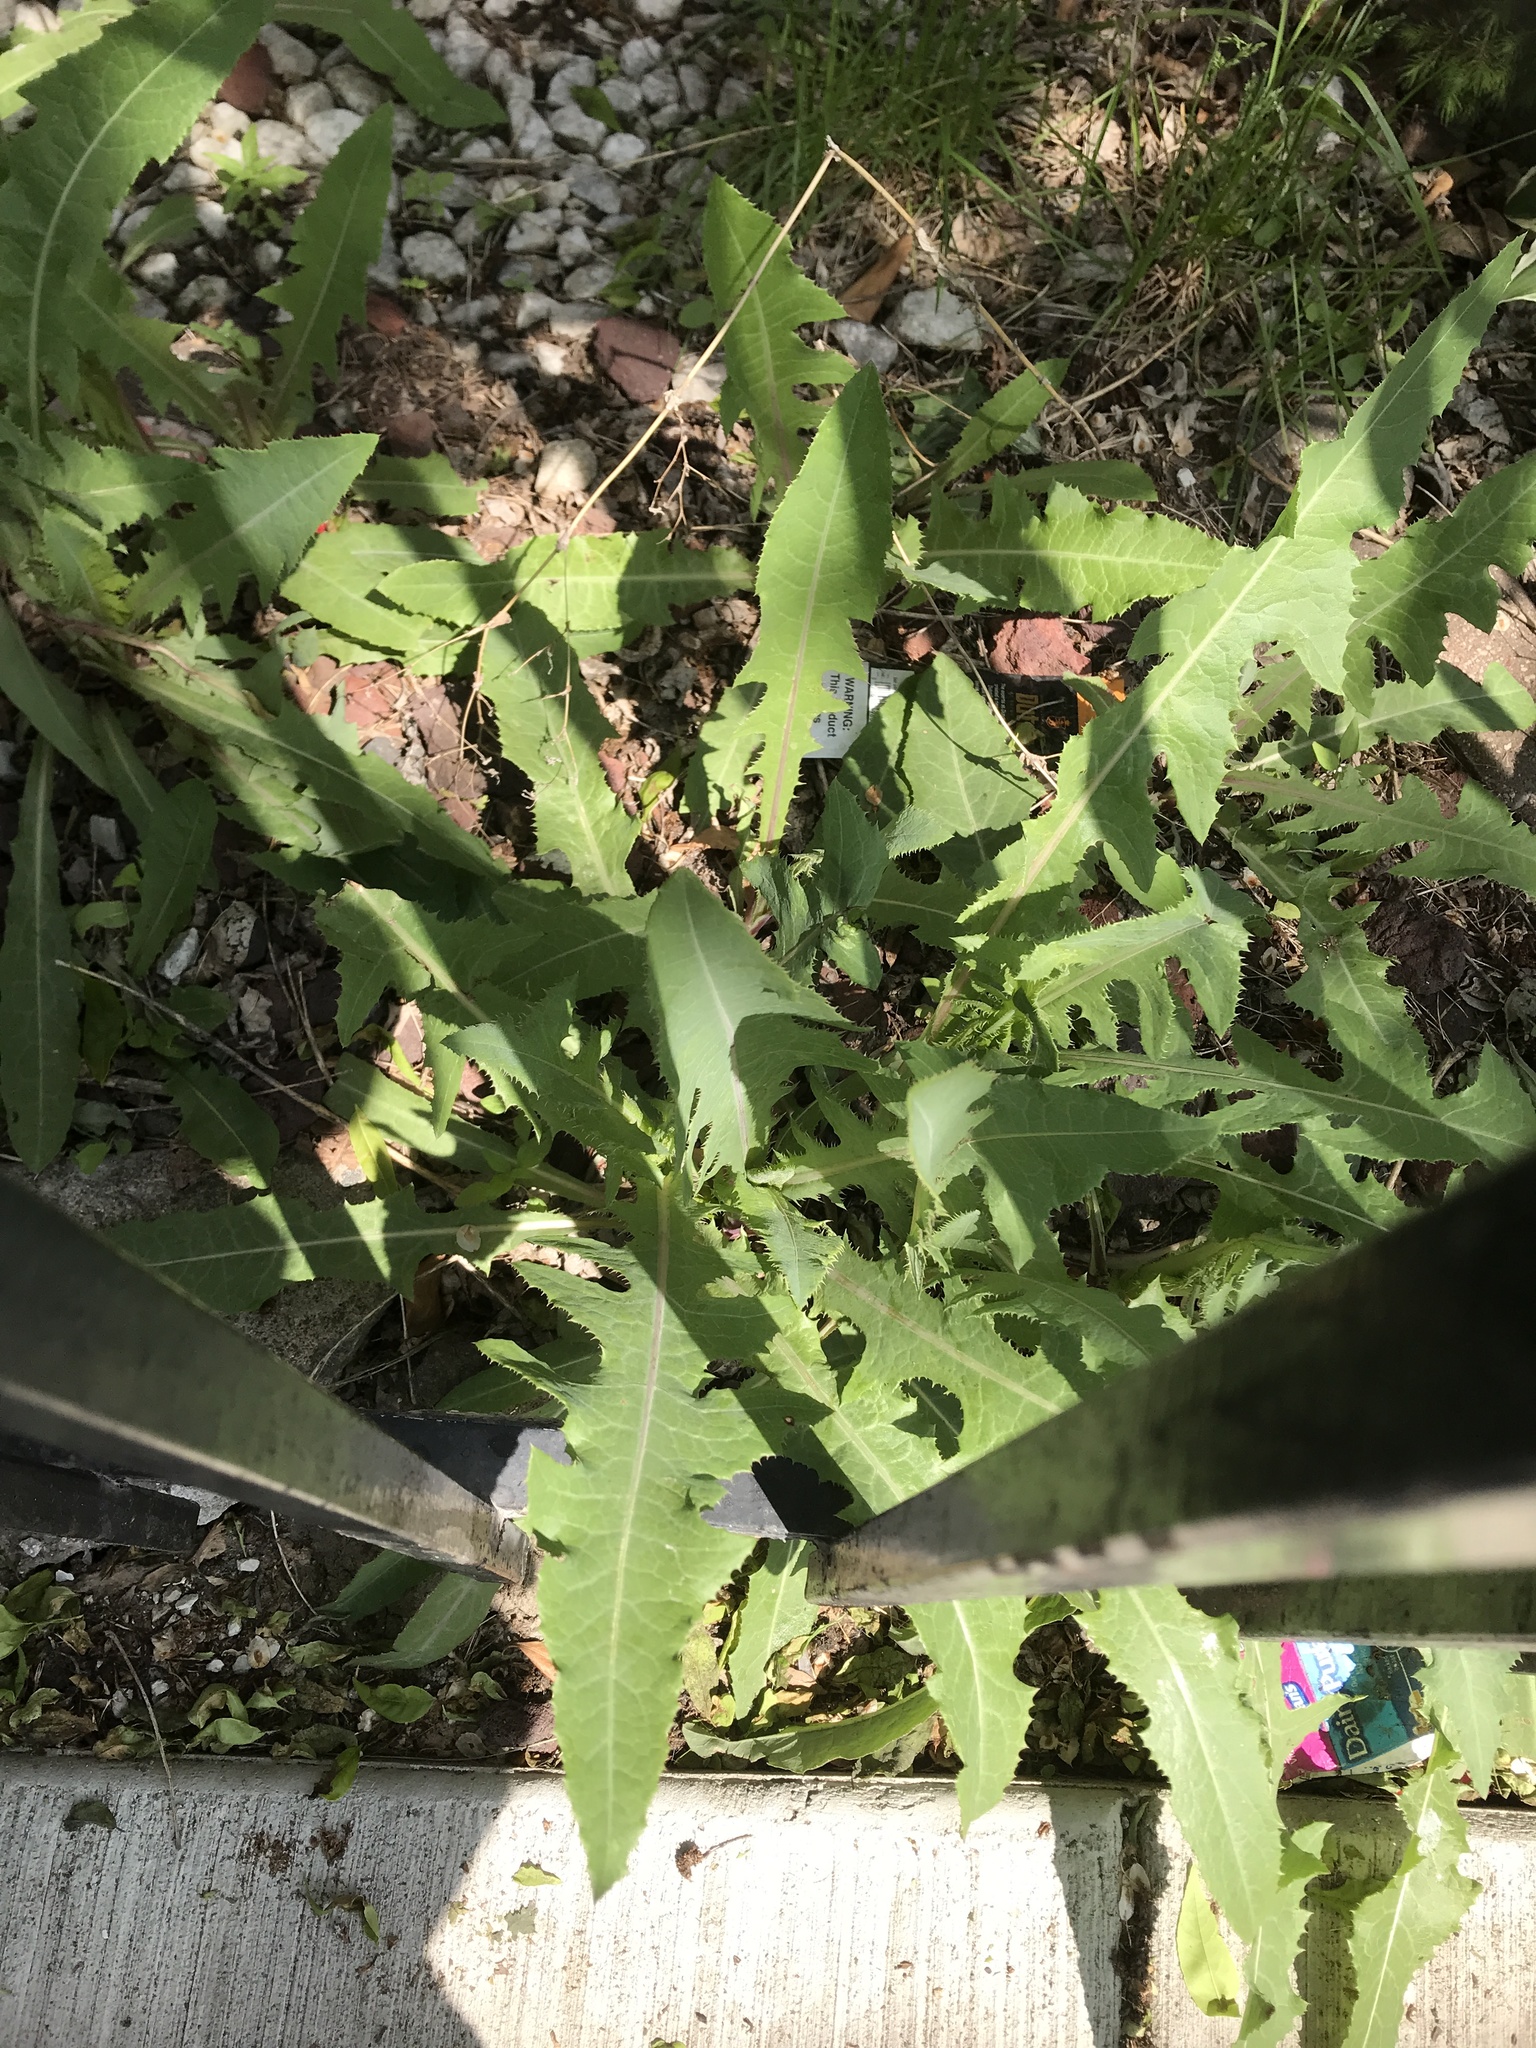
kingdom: Plantae
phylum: Tracheophyta
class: Magnoliopsida
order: Asterales
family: Asteraceae
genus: Lactuca
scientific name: Lactuca serriola
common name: Prickly lettuce
